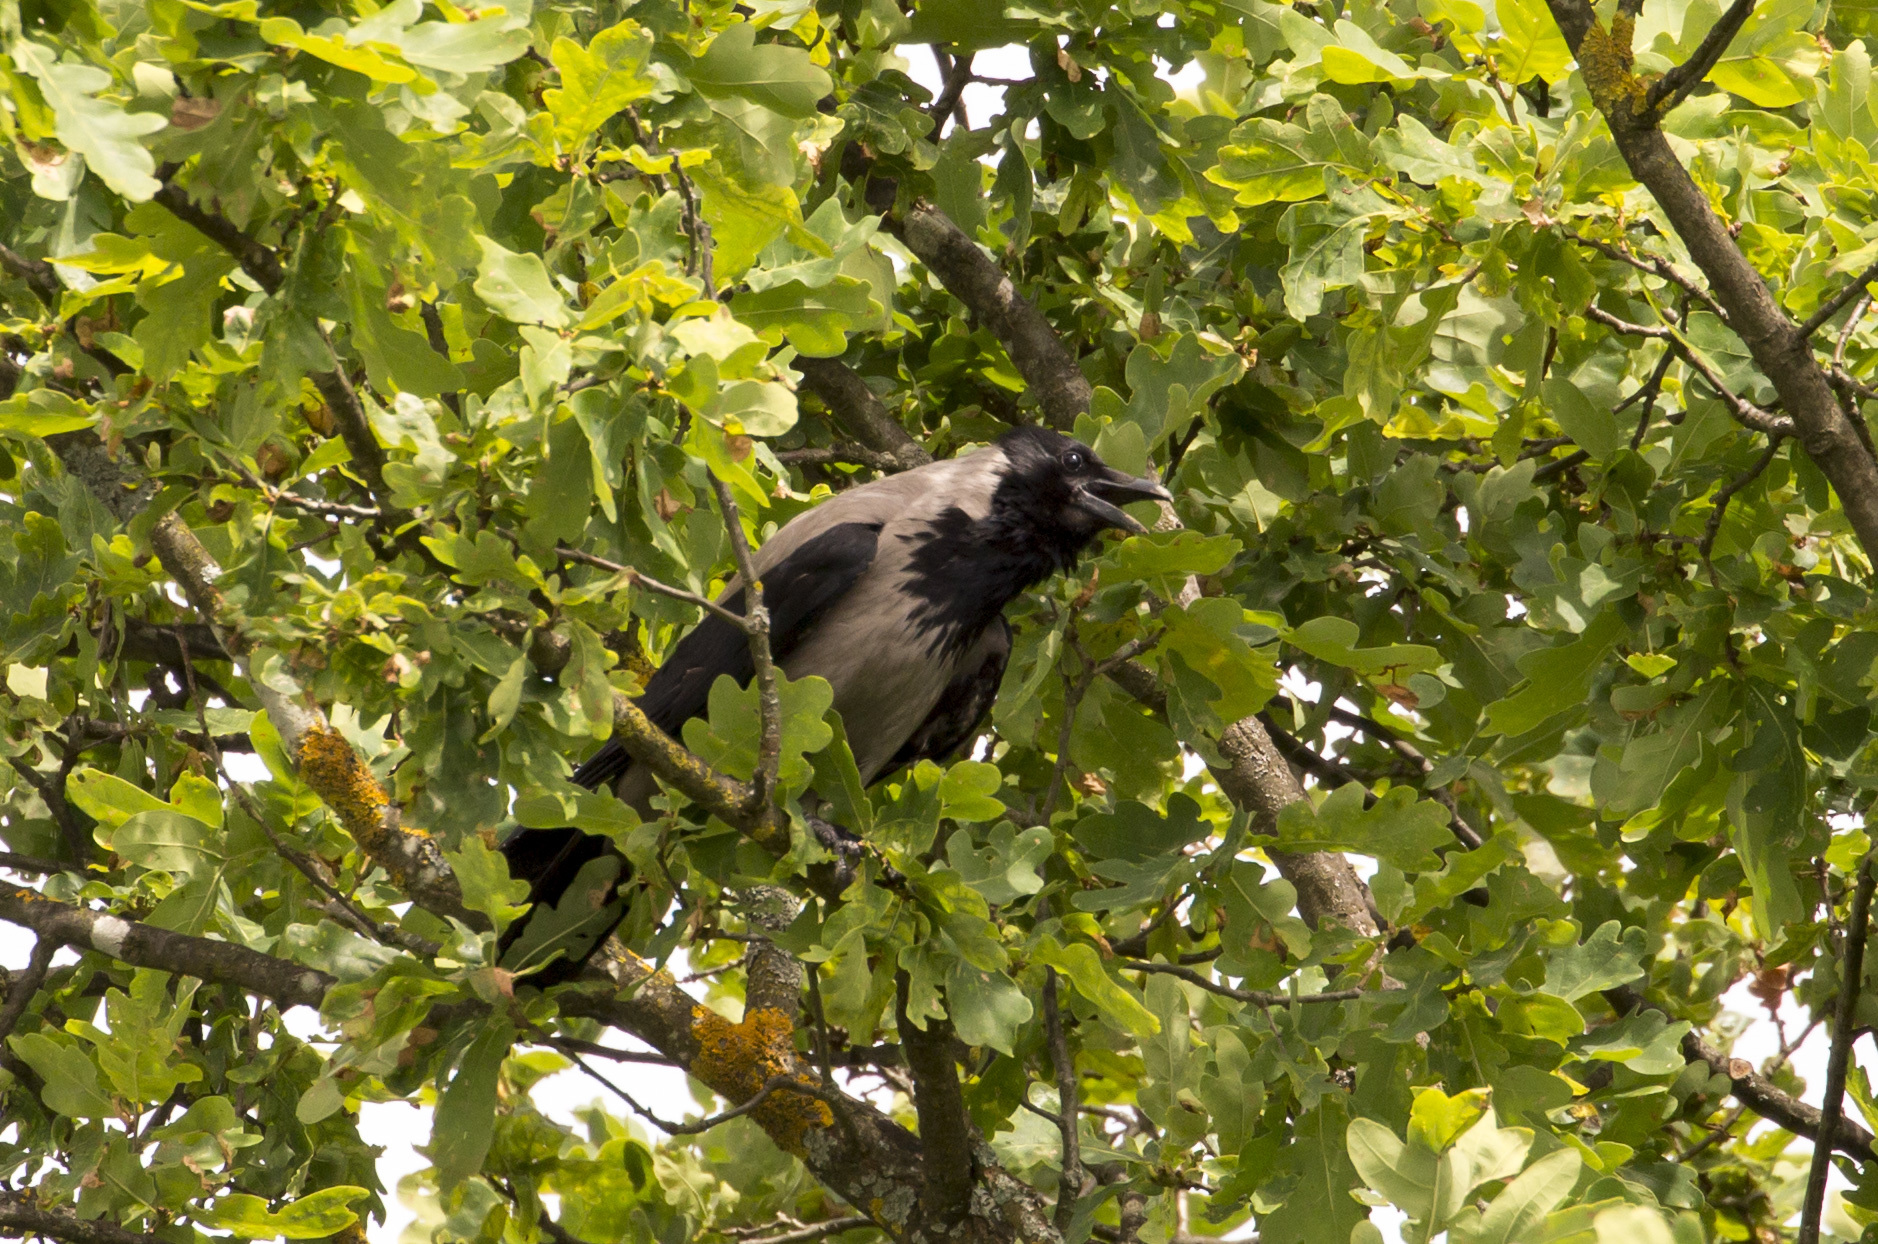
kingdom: Animalia
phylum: Chordata
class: Aves
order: Passeriformes
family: Corvidae
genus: Corvus
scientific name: Corvus cornix
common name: Hooded crow
